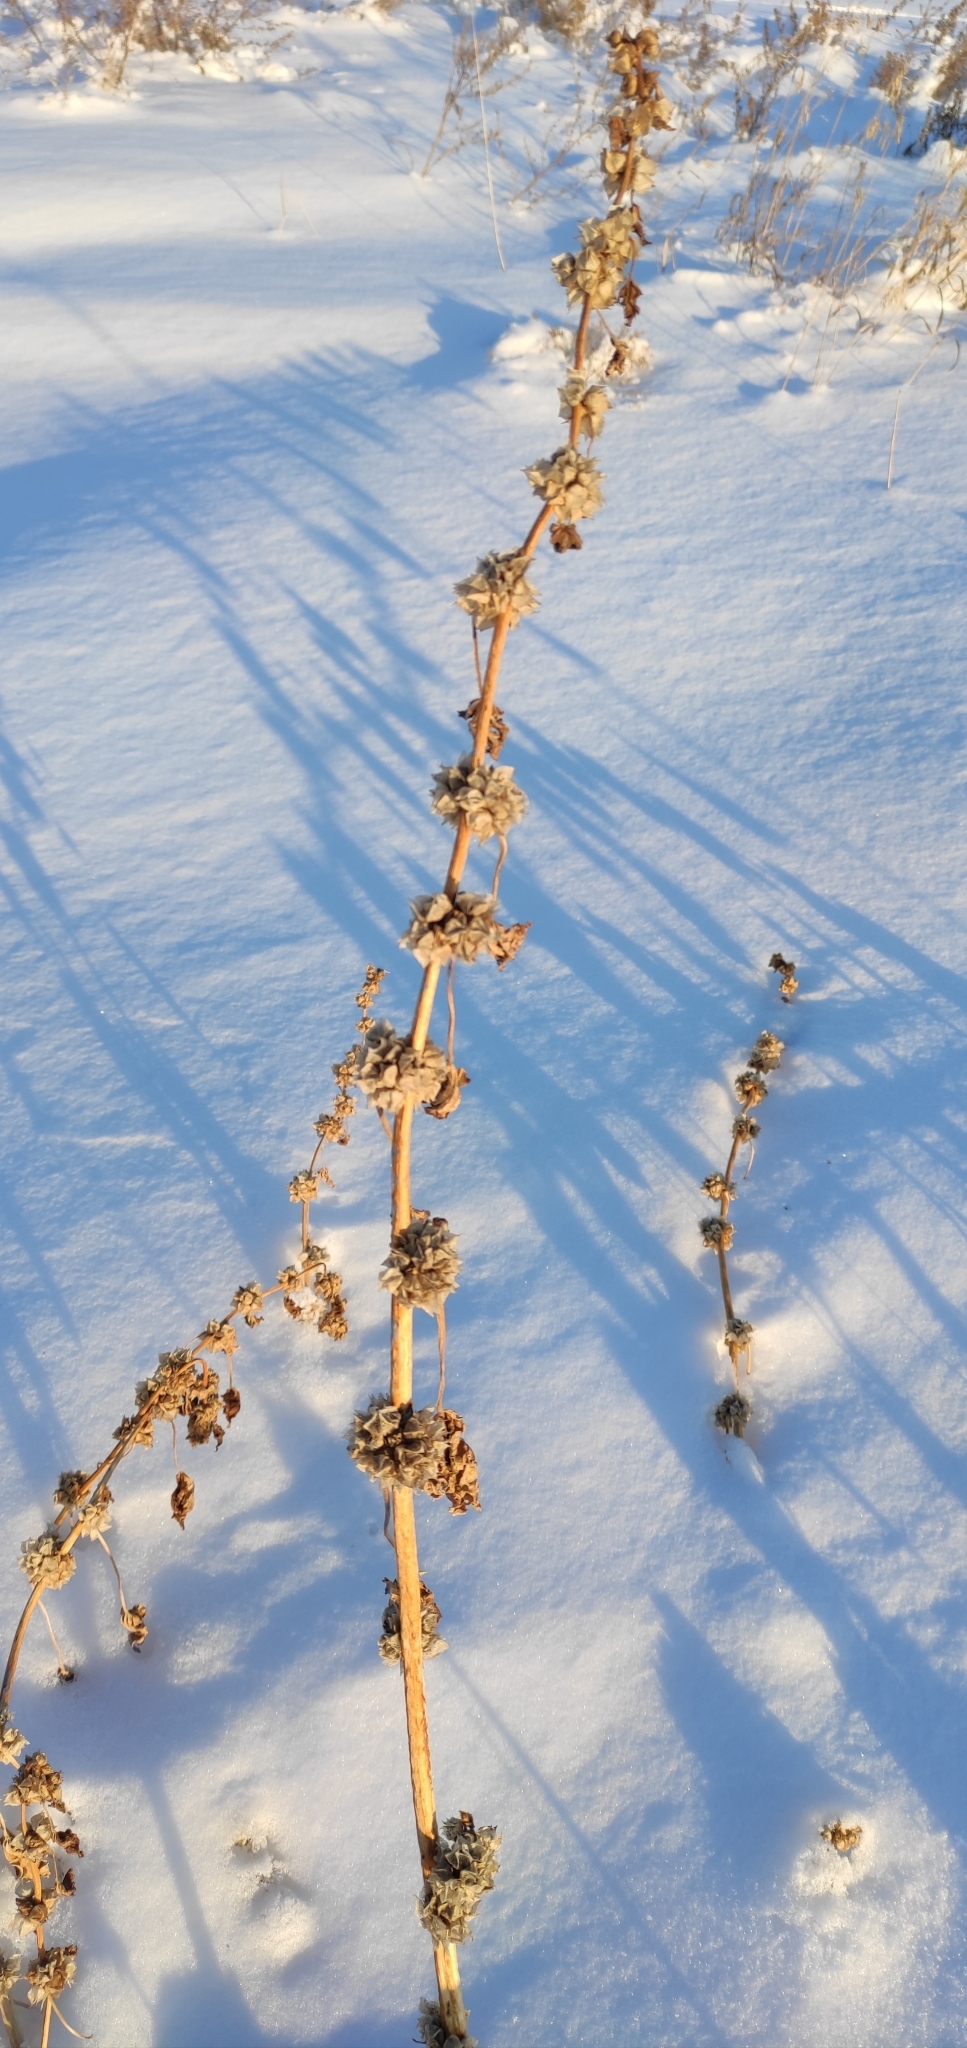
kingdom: Plantae
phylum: Tracheophyta
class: Magnoliopsida
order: Malvales
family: Malvaceae
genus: Malva
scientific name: Malva verticillata
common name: Chinese mallow
